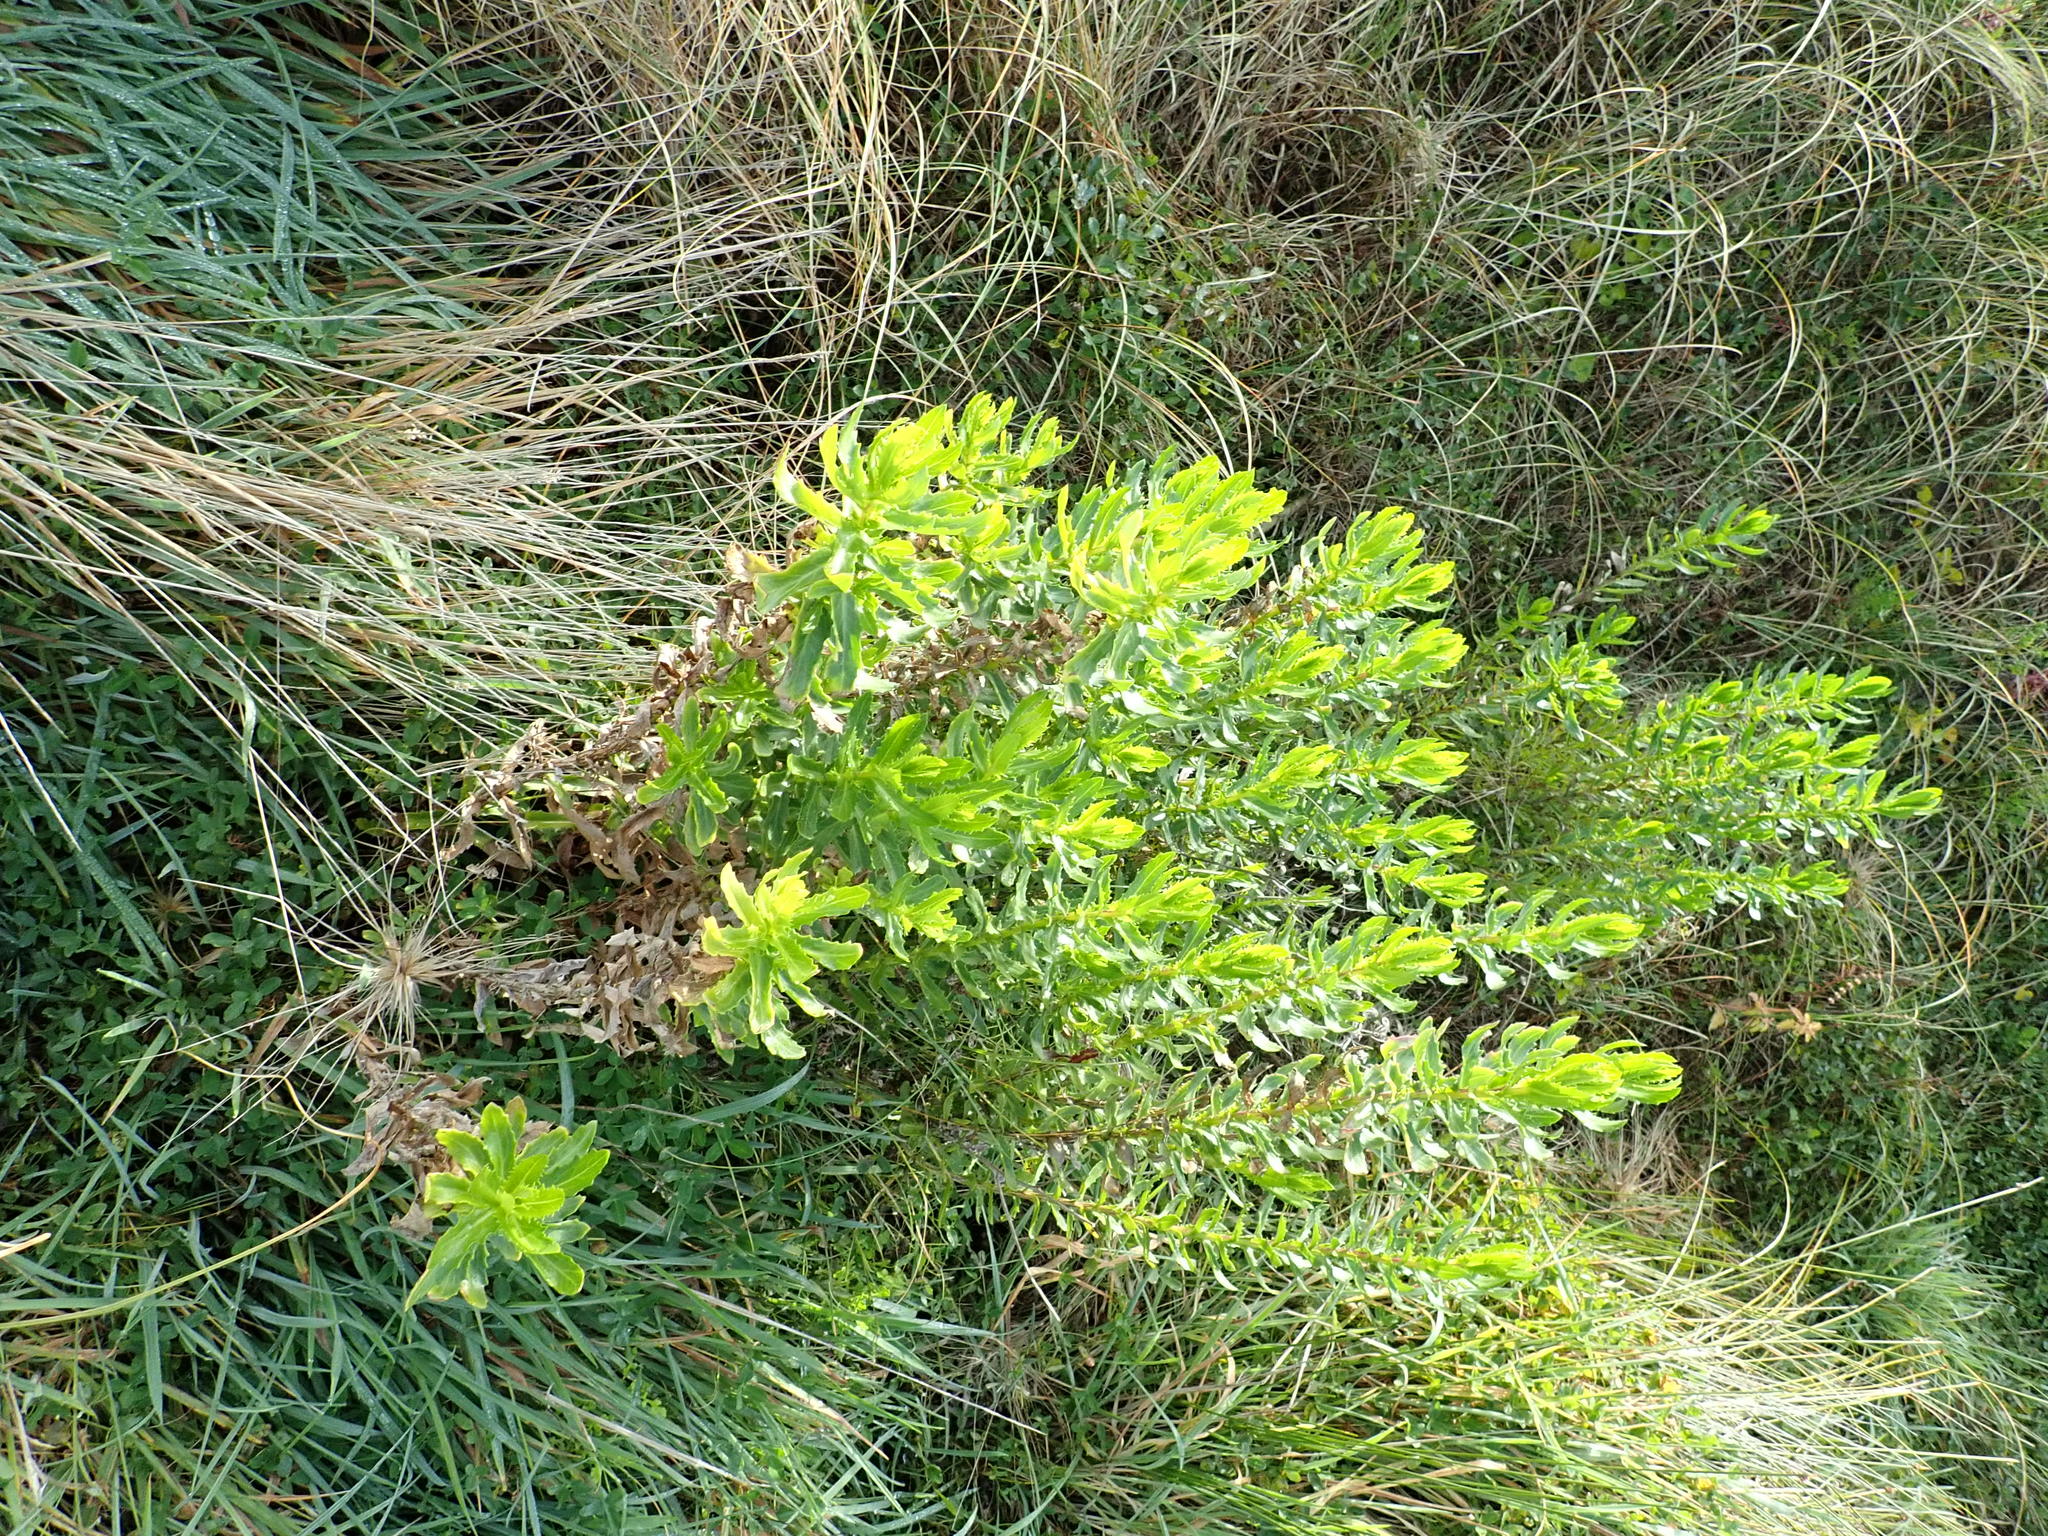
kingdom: Plantae
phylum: Tracheophyta
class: Magnoliopsida
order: Asterales
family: Asteraceae
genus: Senecio
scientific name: Senecio glastifolius
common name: Woad-leaved ragwort
